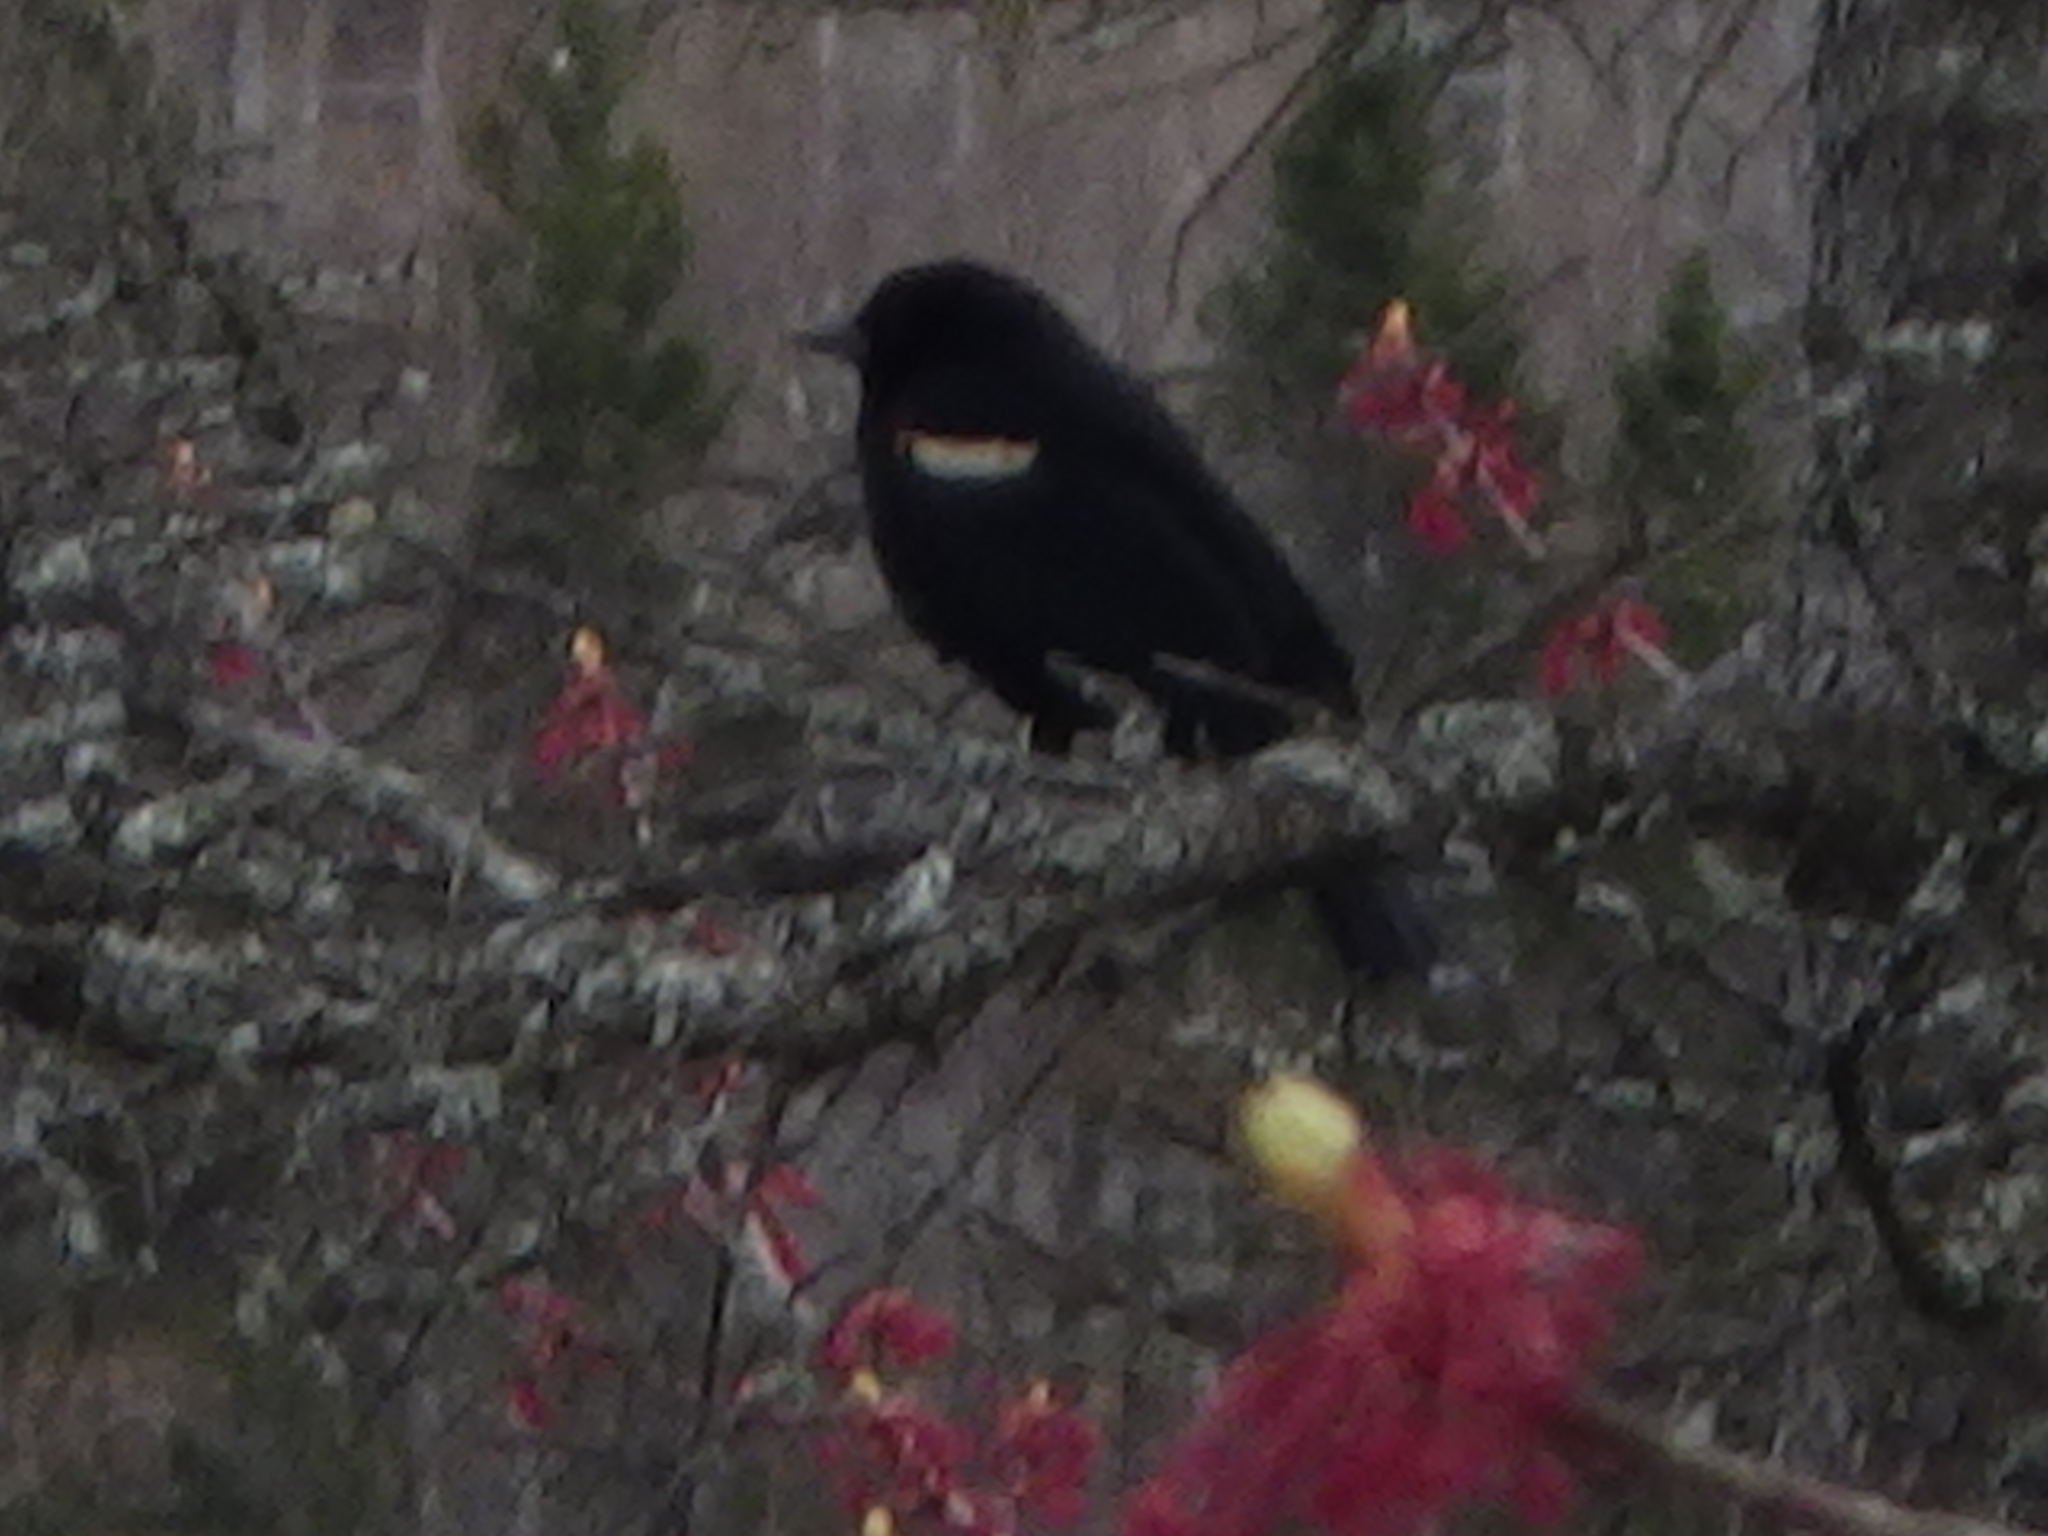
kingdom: Animalia
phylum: Chordata
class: Aves
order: Passeriformes
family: Icteridae
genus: Agelaius
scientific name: Agelaius phoeniceus
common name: Red-winged blackbird
